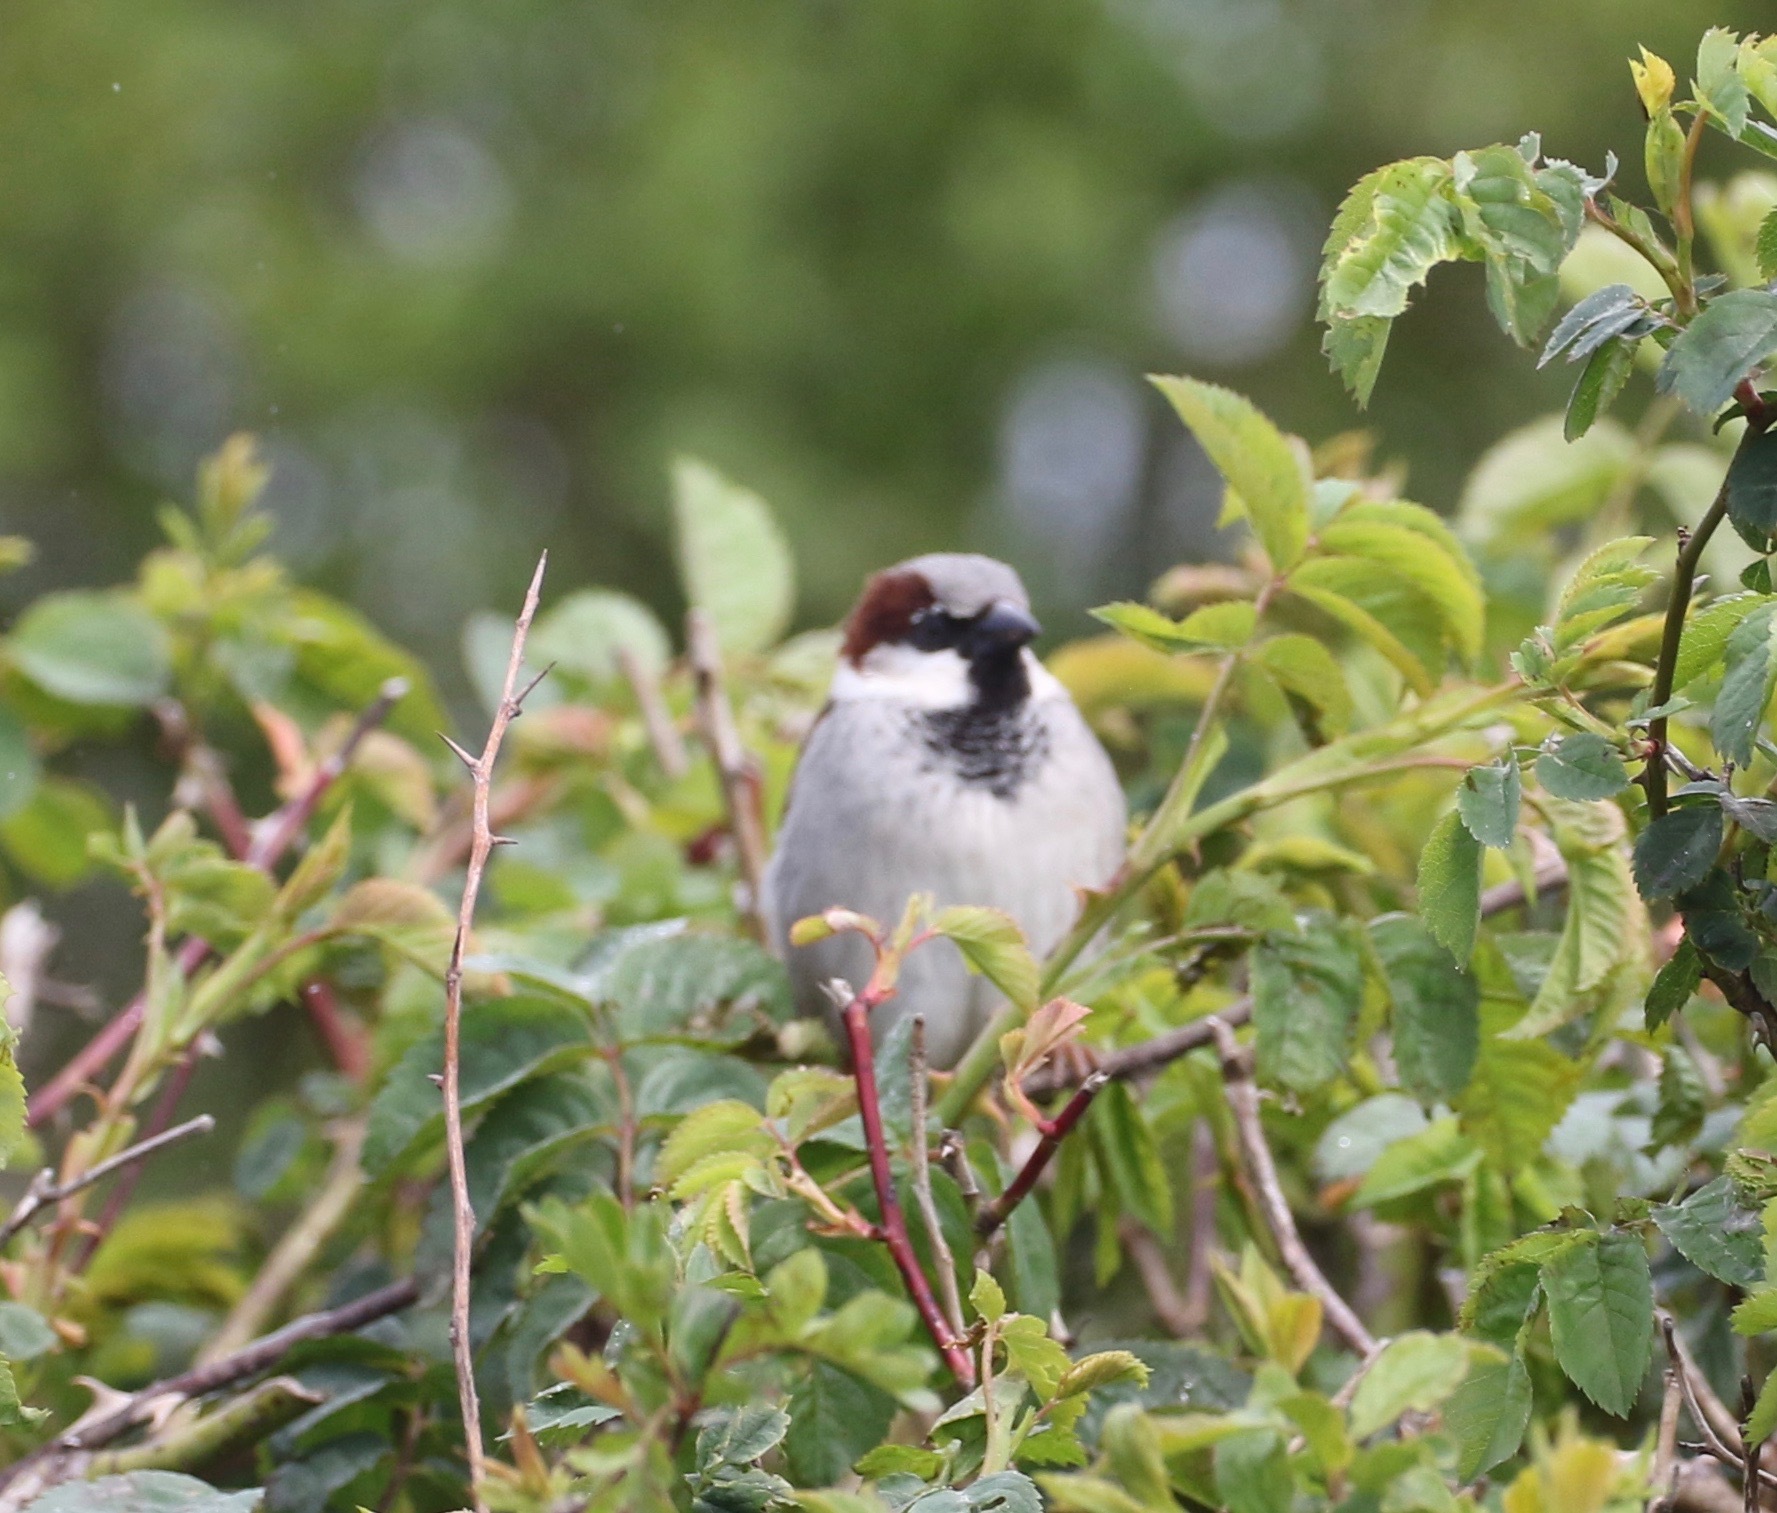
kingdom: Animalia
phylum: Chordata
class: Aves
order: Passeriformes
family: Passeridae
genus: Passer
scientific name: Passer domesticus
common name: House sparrow
